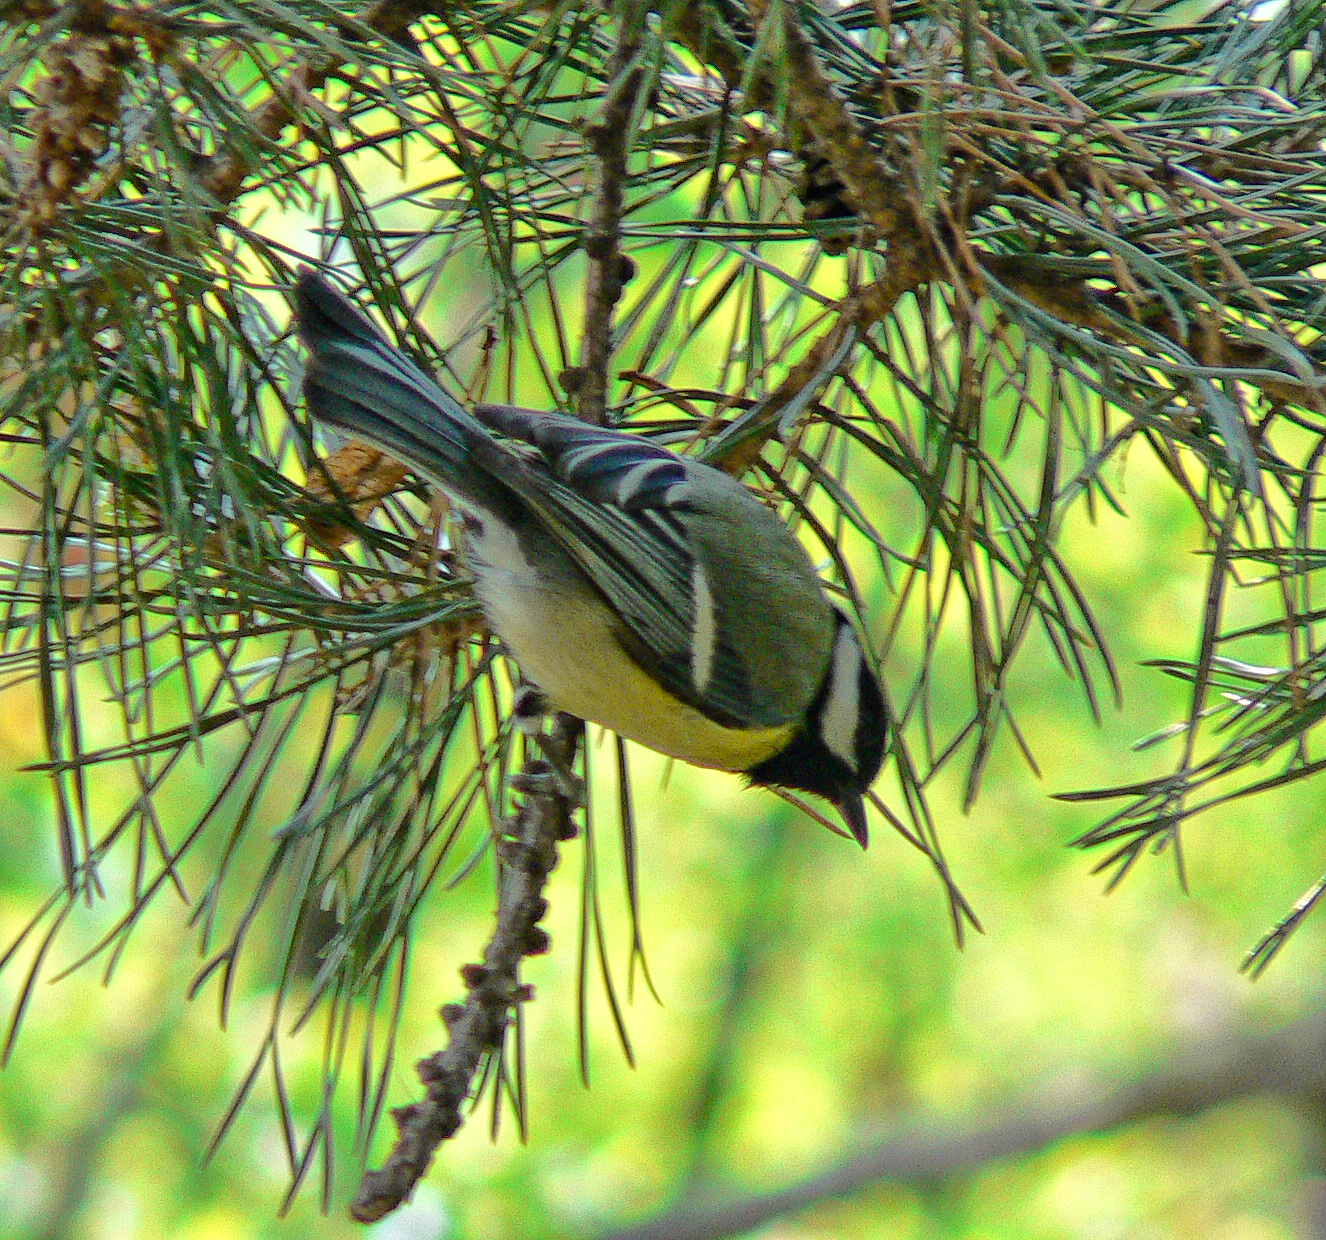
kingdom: Animalia
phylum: Chordata
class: Aves
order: Passeriformes
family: Paridae
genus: Parus
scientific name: Parus major
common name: Great tit
